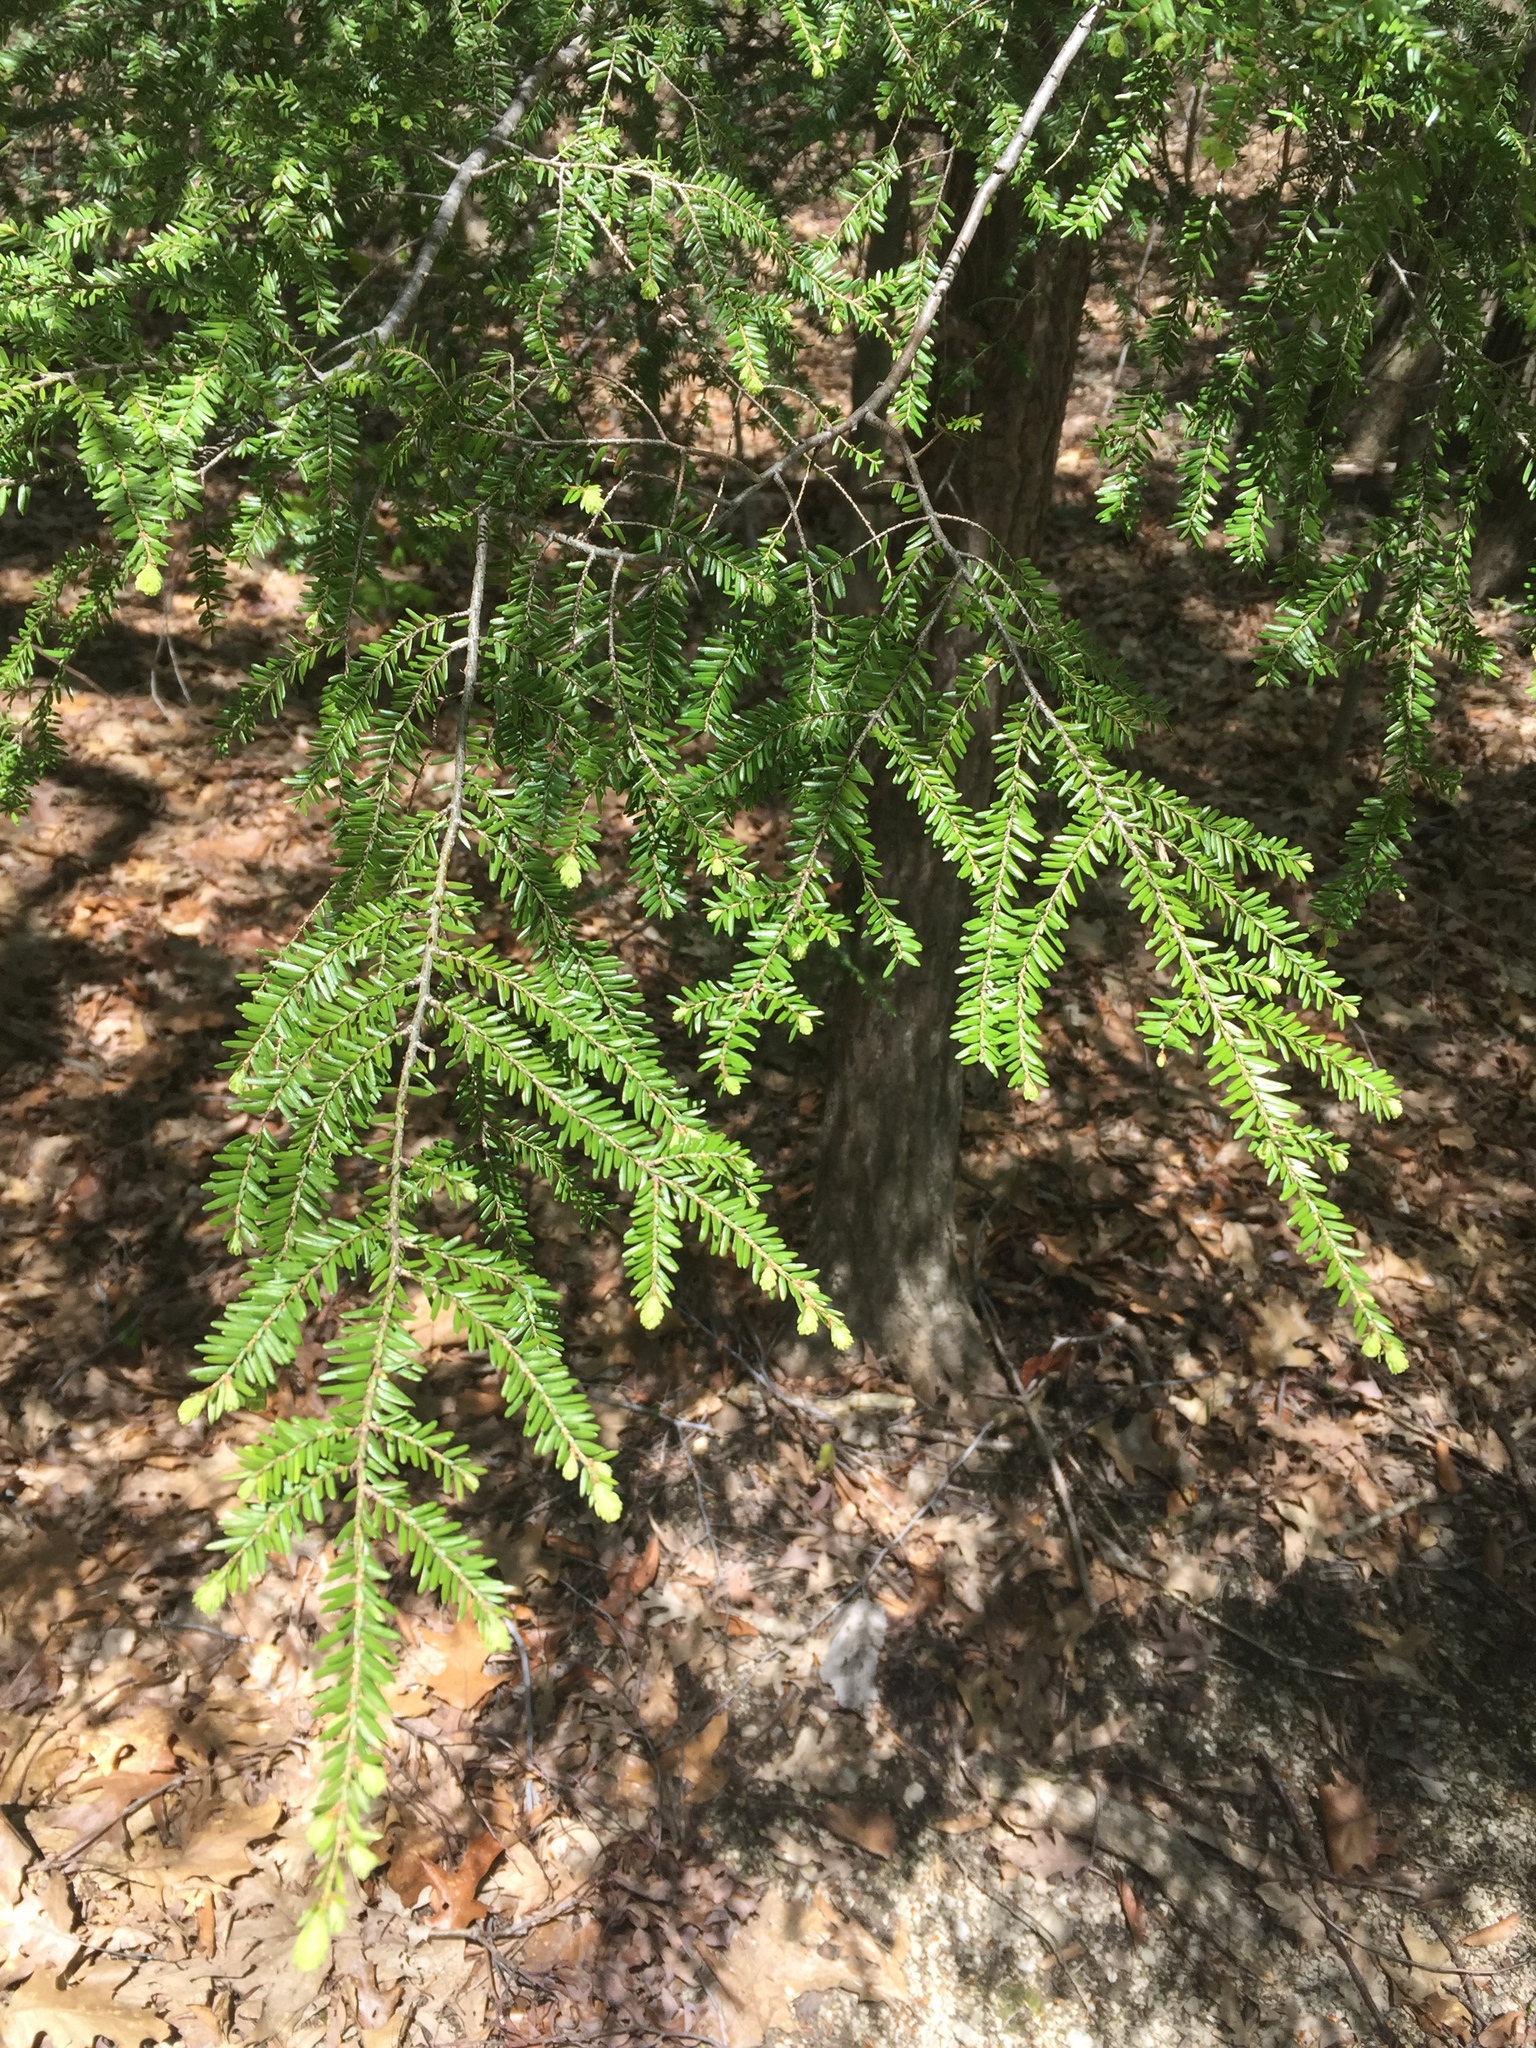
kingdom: Plantae
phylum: Tracheophyta
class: Pinopsida
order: Pinales
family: Pinaceae
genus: Tsuga
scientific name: Tsuga canadensis
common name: Eastern hemlock
